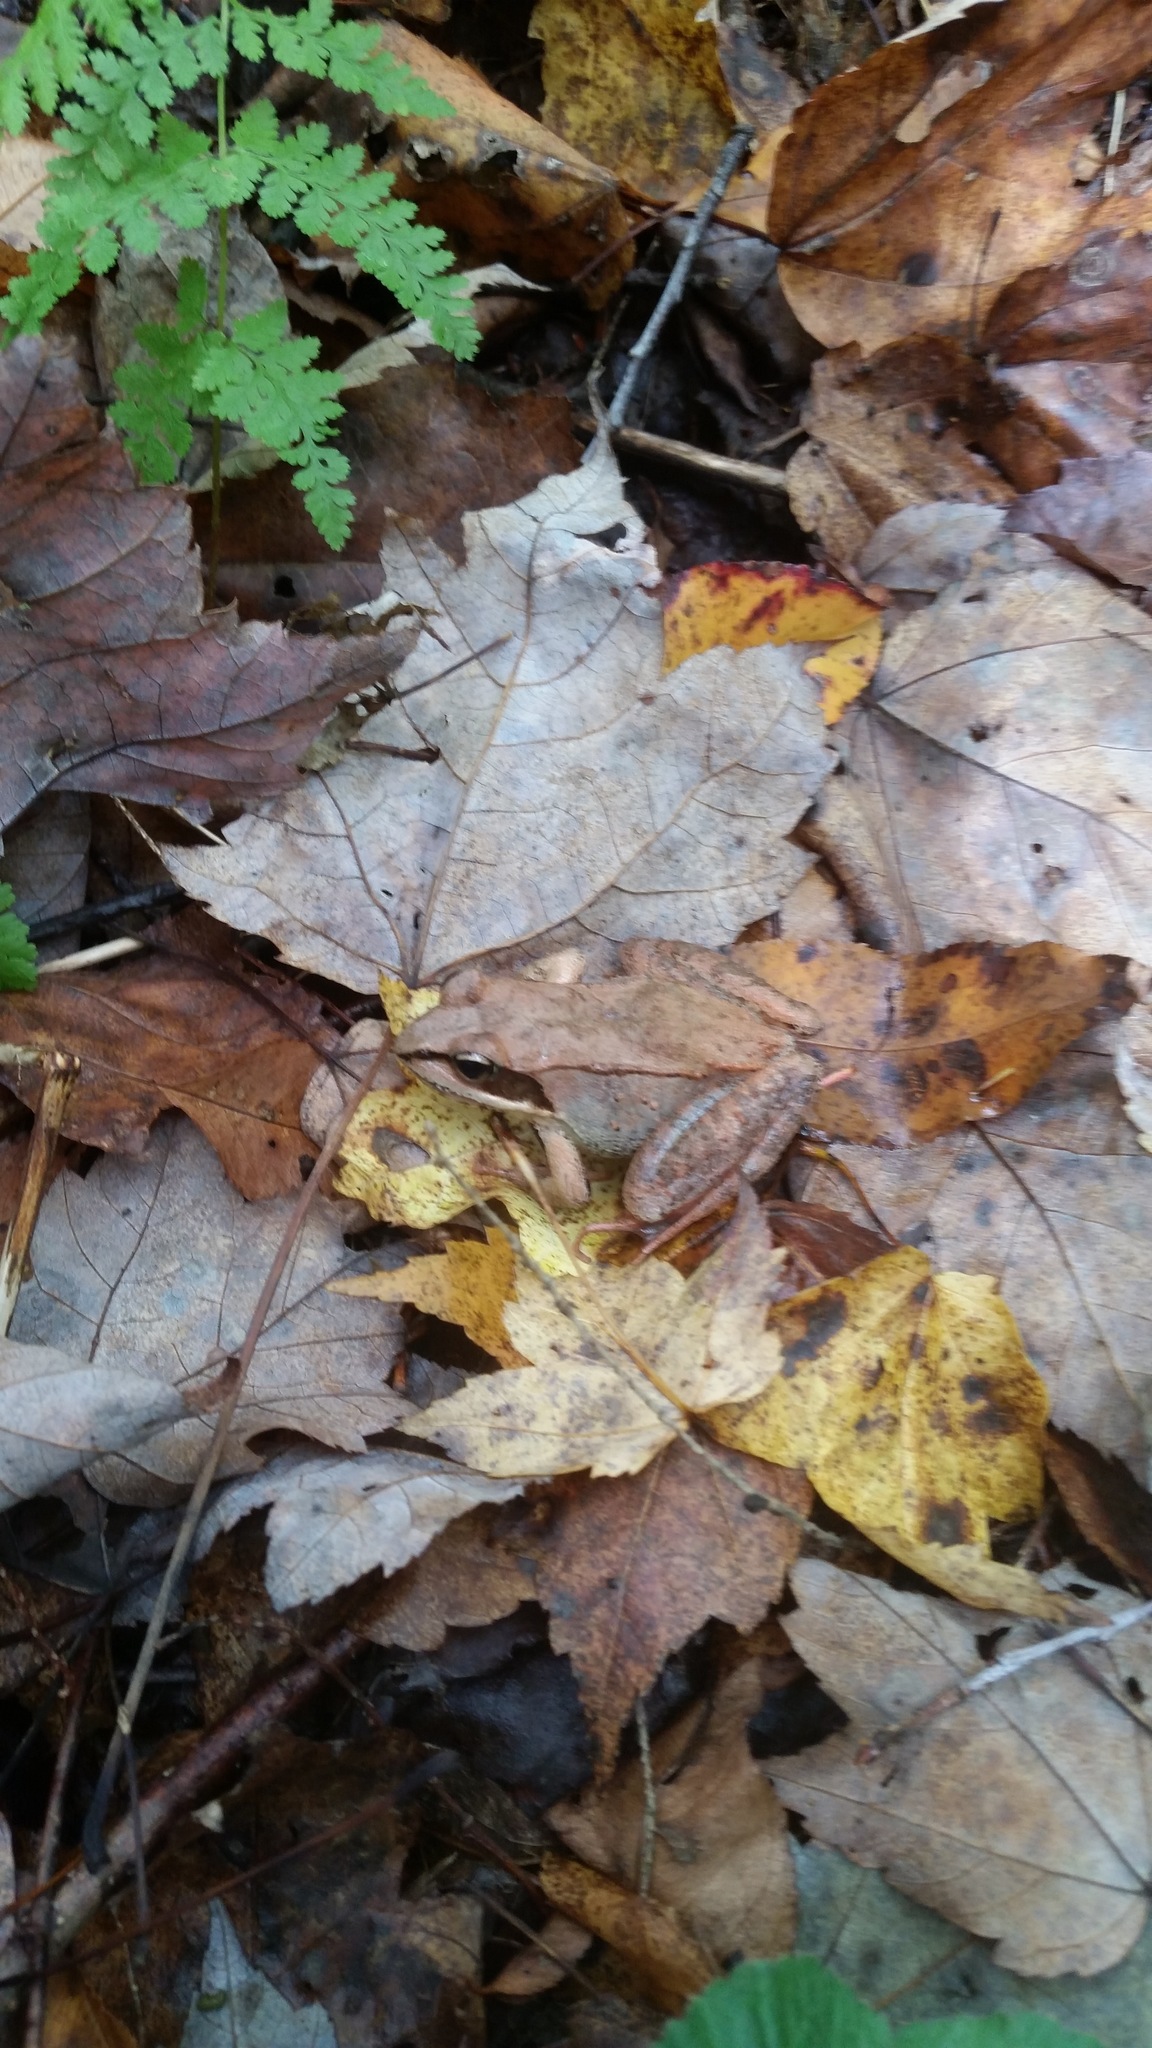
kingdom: Animalia
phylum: Chordata
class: Amphibia
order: Anura
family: Ranidae
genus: Lithobates
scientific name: Lithobates sylvaticus
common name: Wood frog
